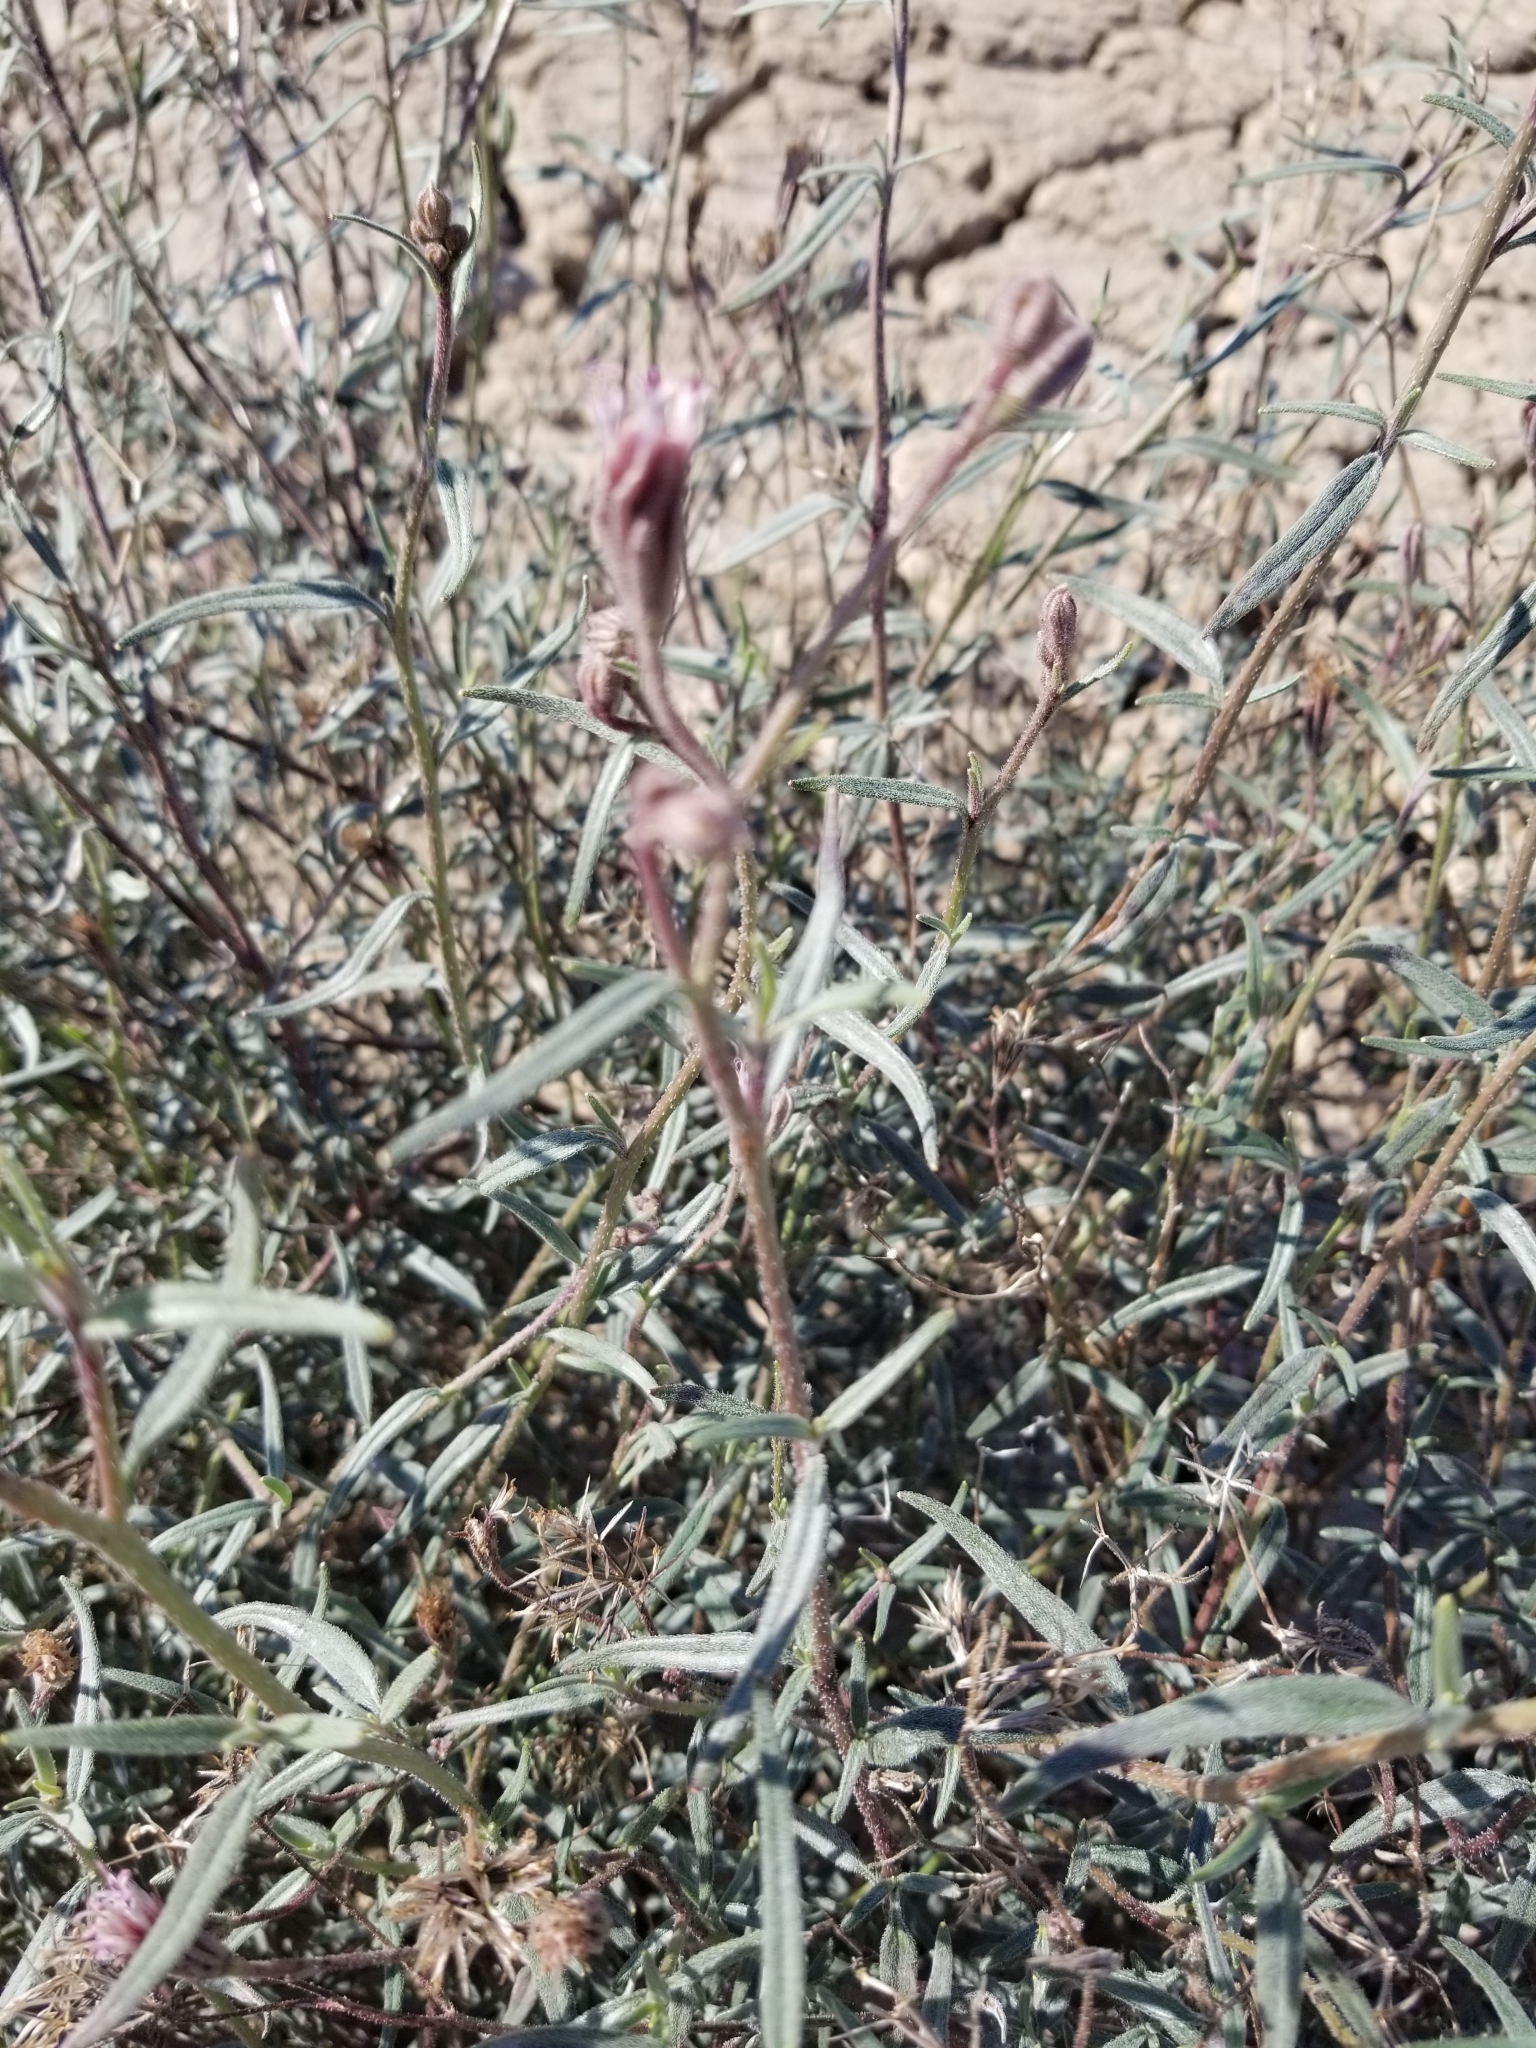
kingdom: Plantae
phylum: Tracheophyta
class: Magnoliopsida
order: Asterales
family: Asteraceae
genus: Palafoxia
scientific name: Palafoxia arida
